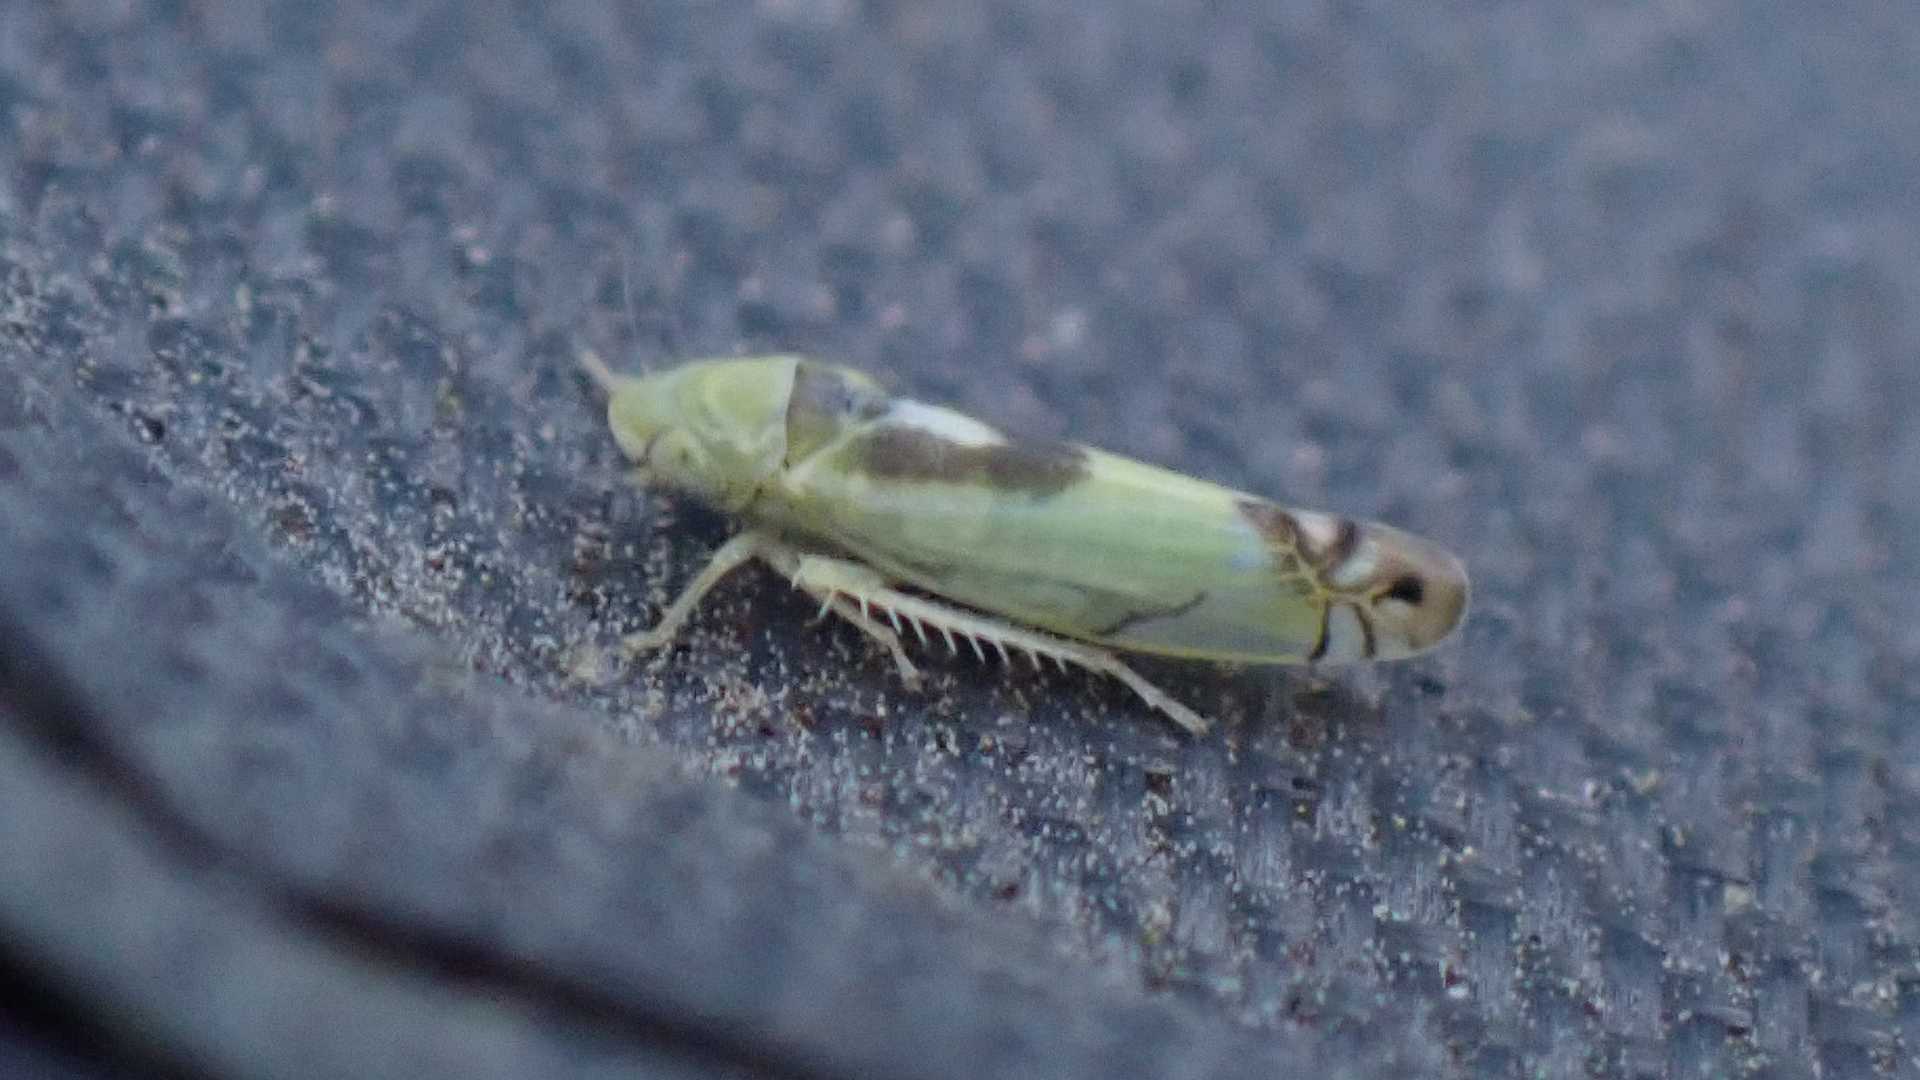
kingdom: Animalia
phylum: Arthropoda
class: Insecta
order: Hemiptera
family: Cicadellidae
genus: Zyginella
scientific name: Zyginella pulchra
